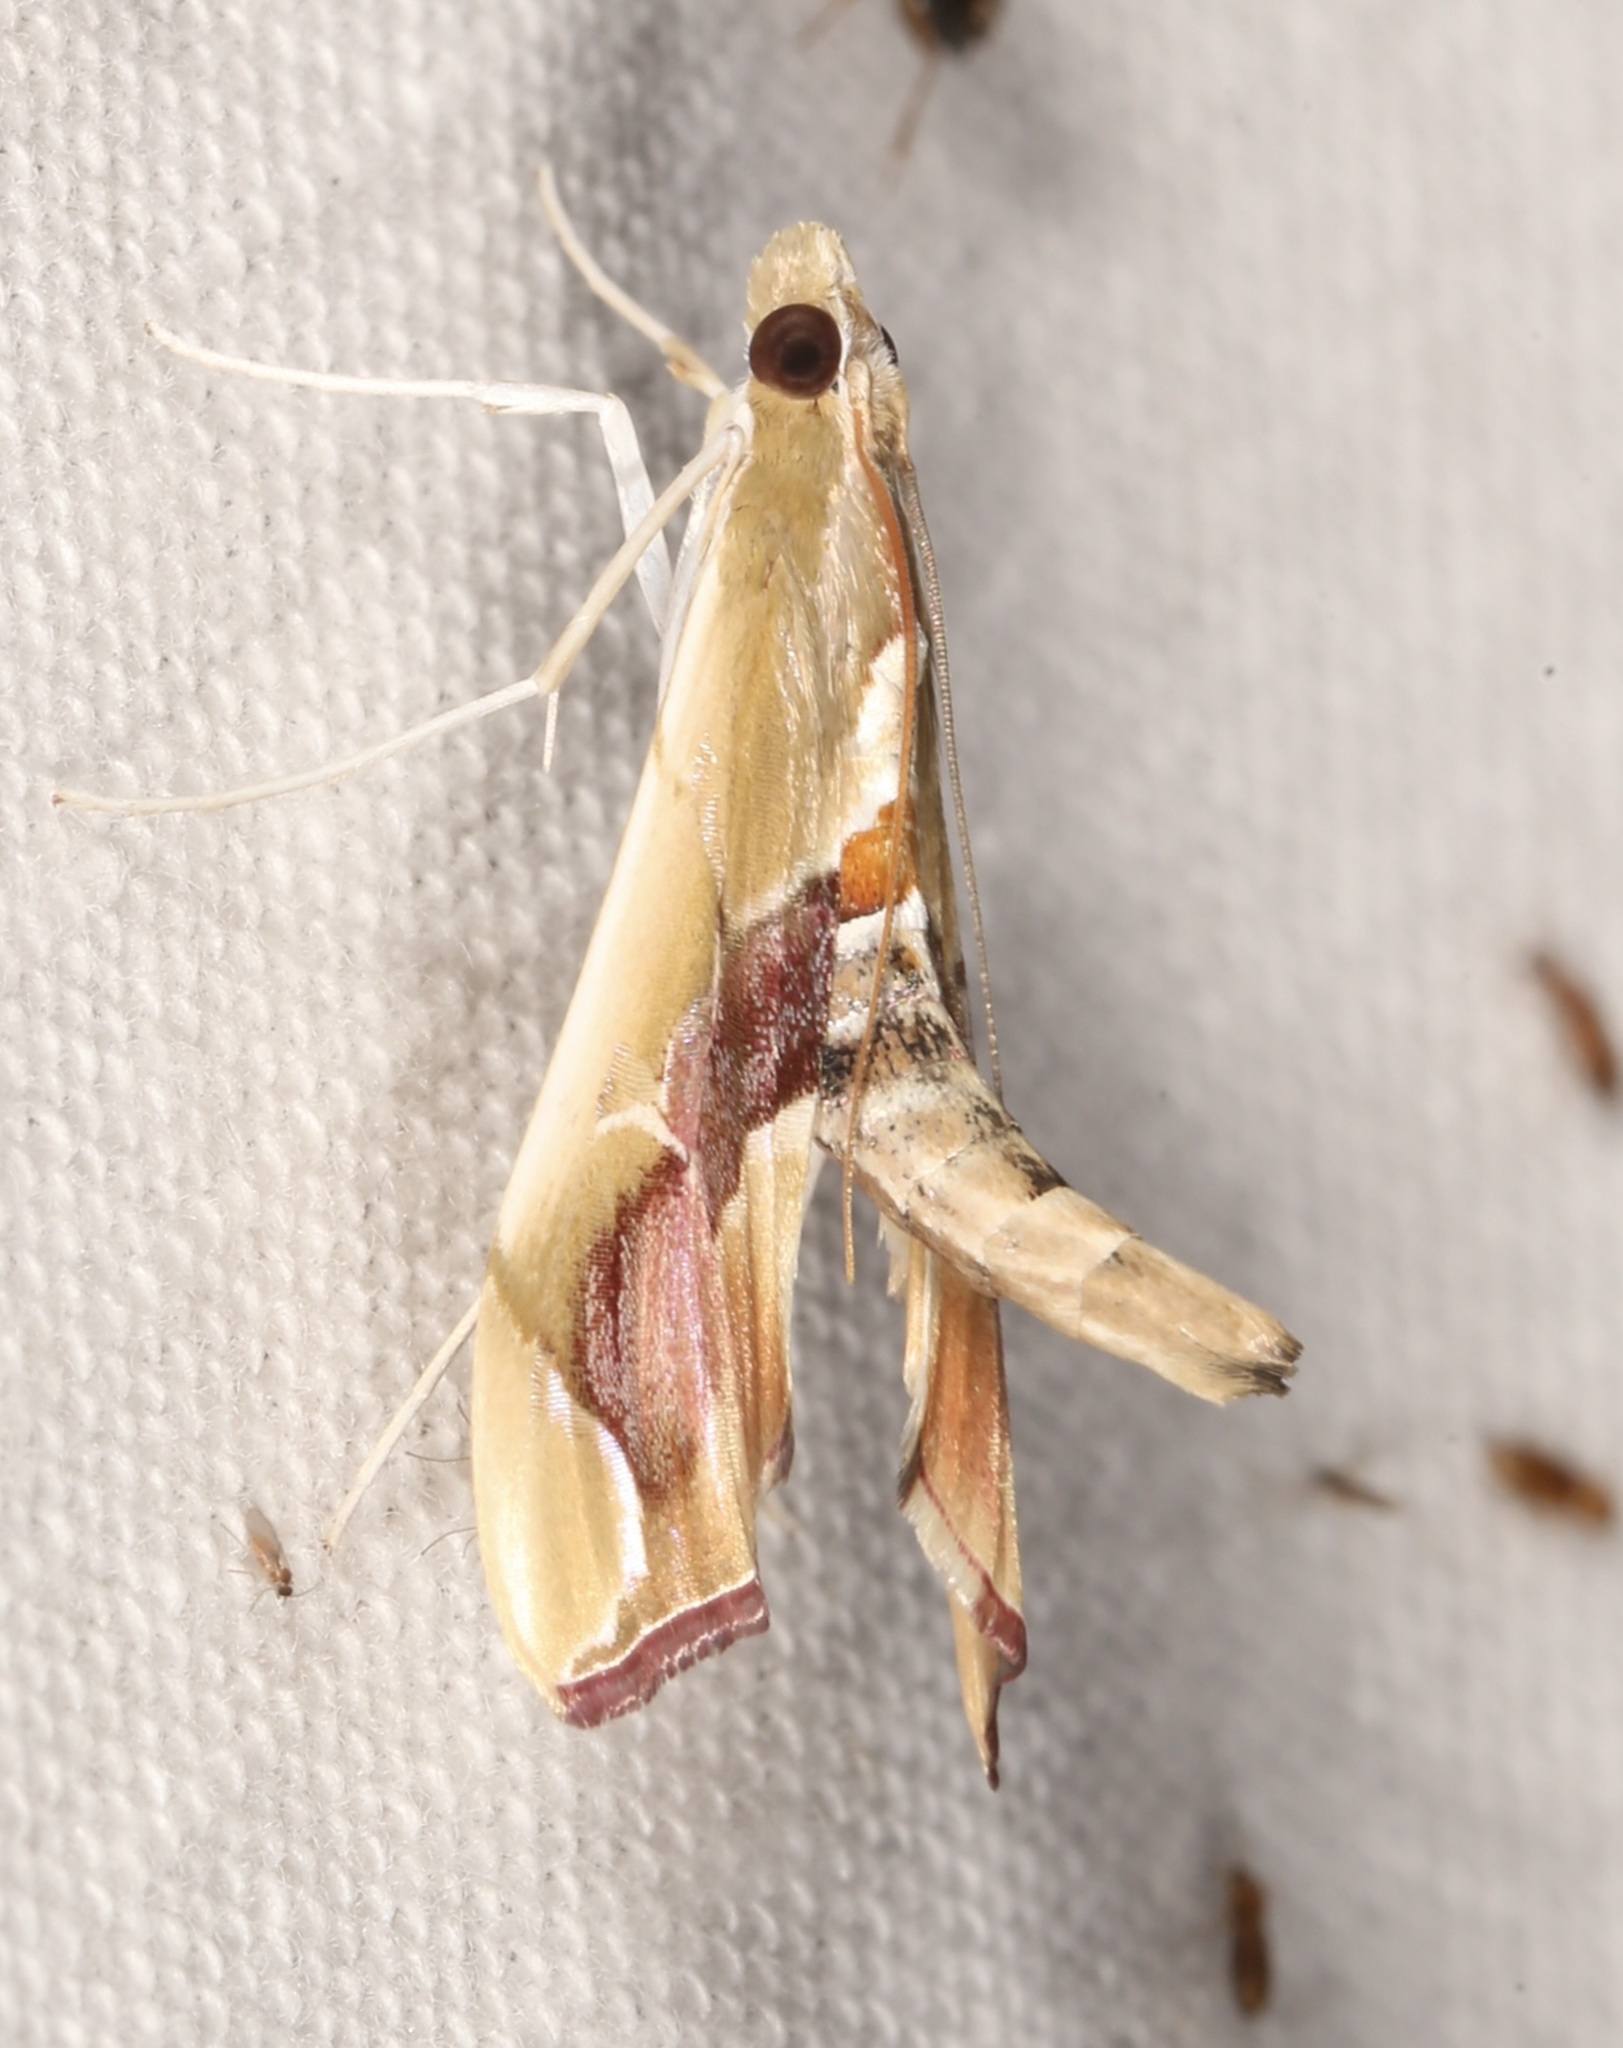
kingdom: Animalia
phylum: Arthropoda
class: Insecta
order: Lepidoptera
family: Crambidae
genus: Agathodes
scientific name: Agathodes monstralis
